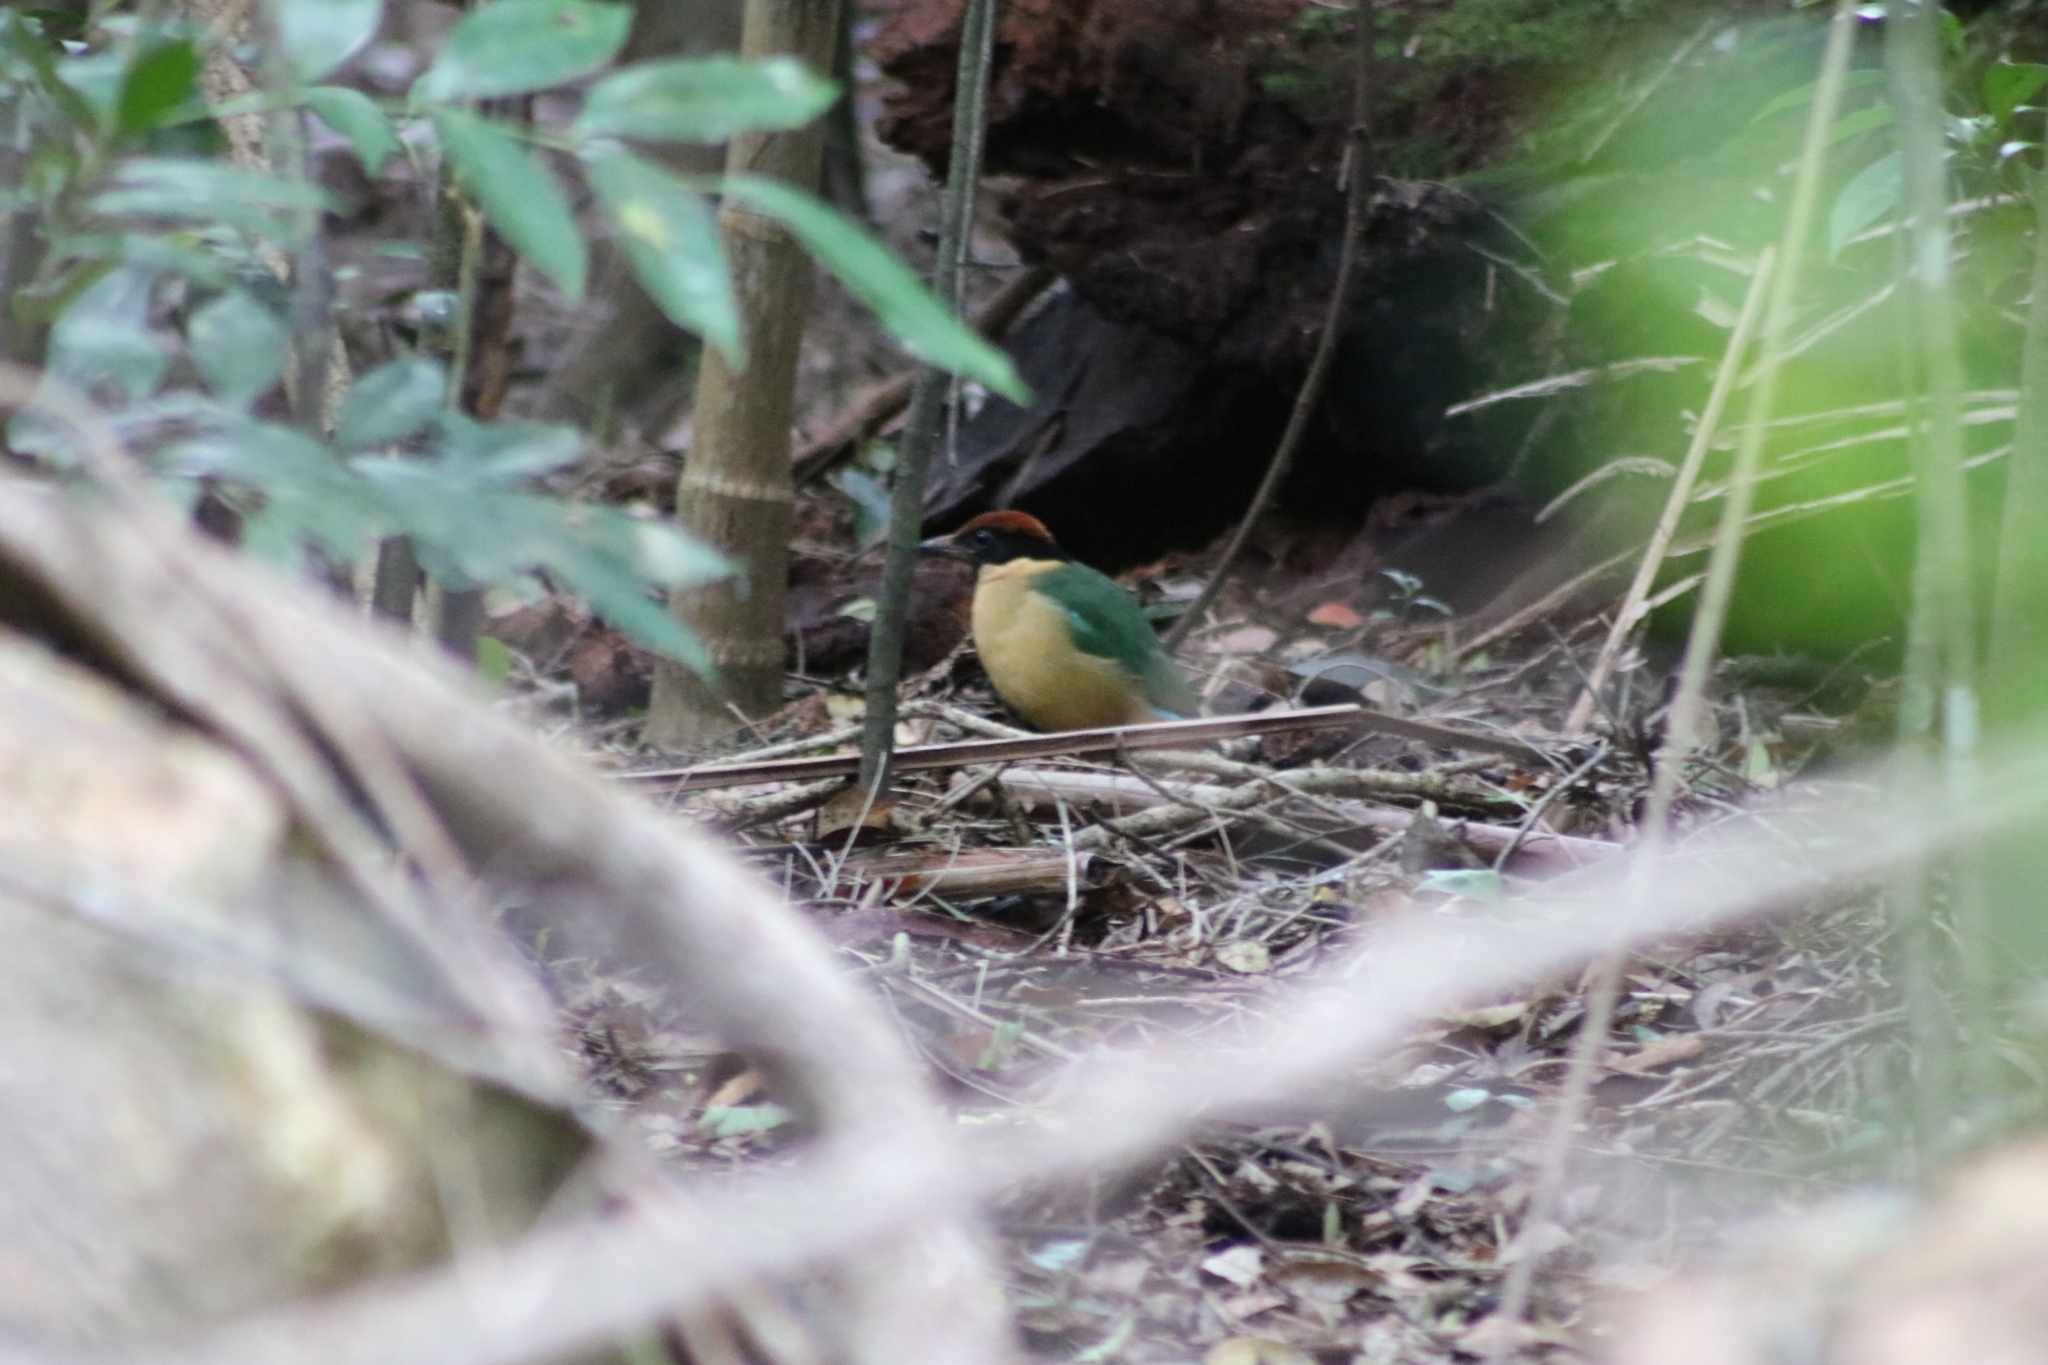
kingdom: Animalia
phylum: Chordata
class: Aves
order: Passeriformes
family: Pittidae
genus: Pitta
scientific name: Pitta versicolor
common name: Noisy pitta
